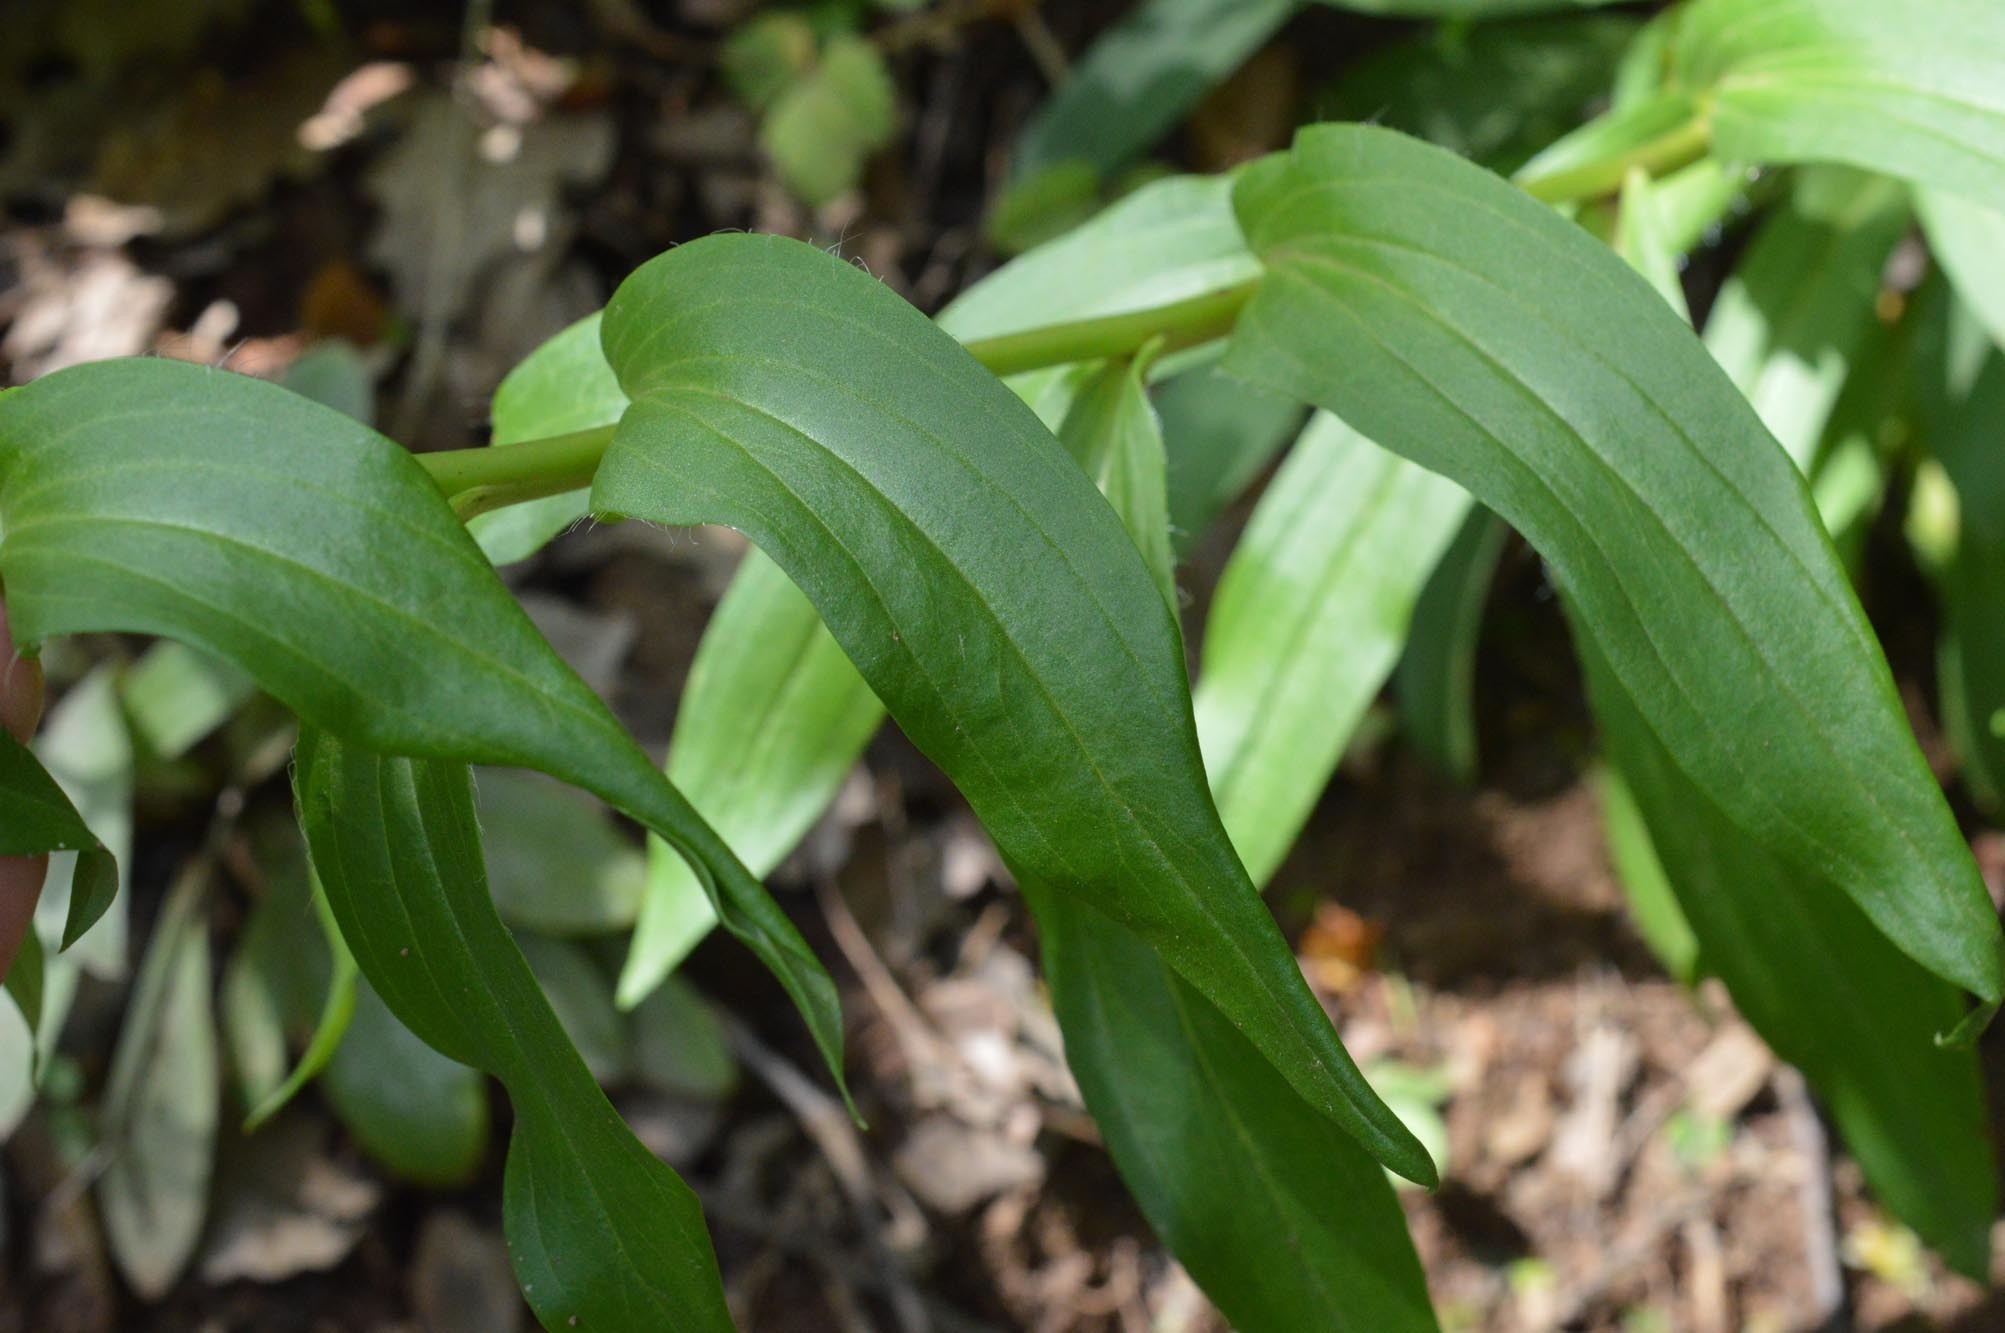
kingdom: Plantae
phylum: Tracheophyta
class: Magnoliopsida
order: Lamiales
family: Plantaginaceae
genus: Digitalis
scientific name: Digitalis lanata
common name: Grecian foxglove
